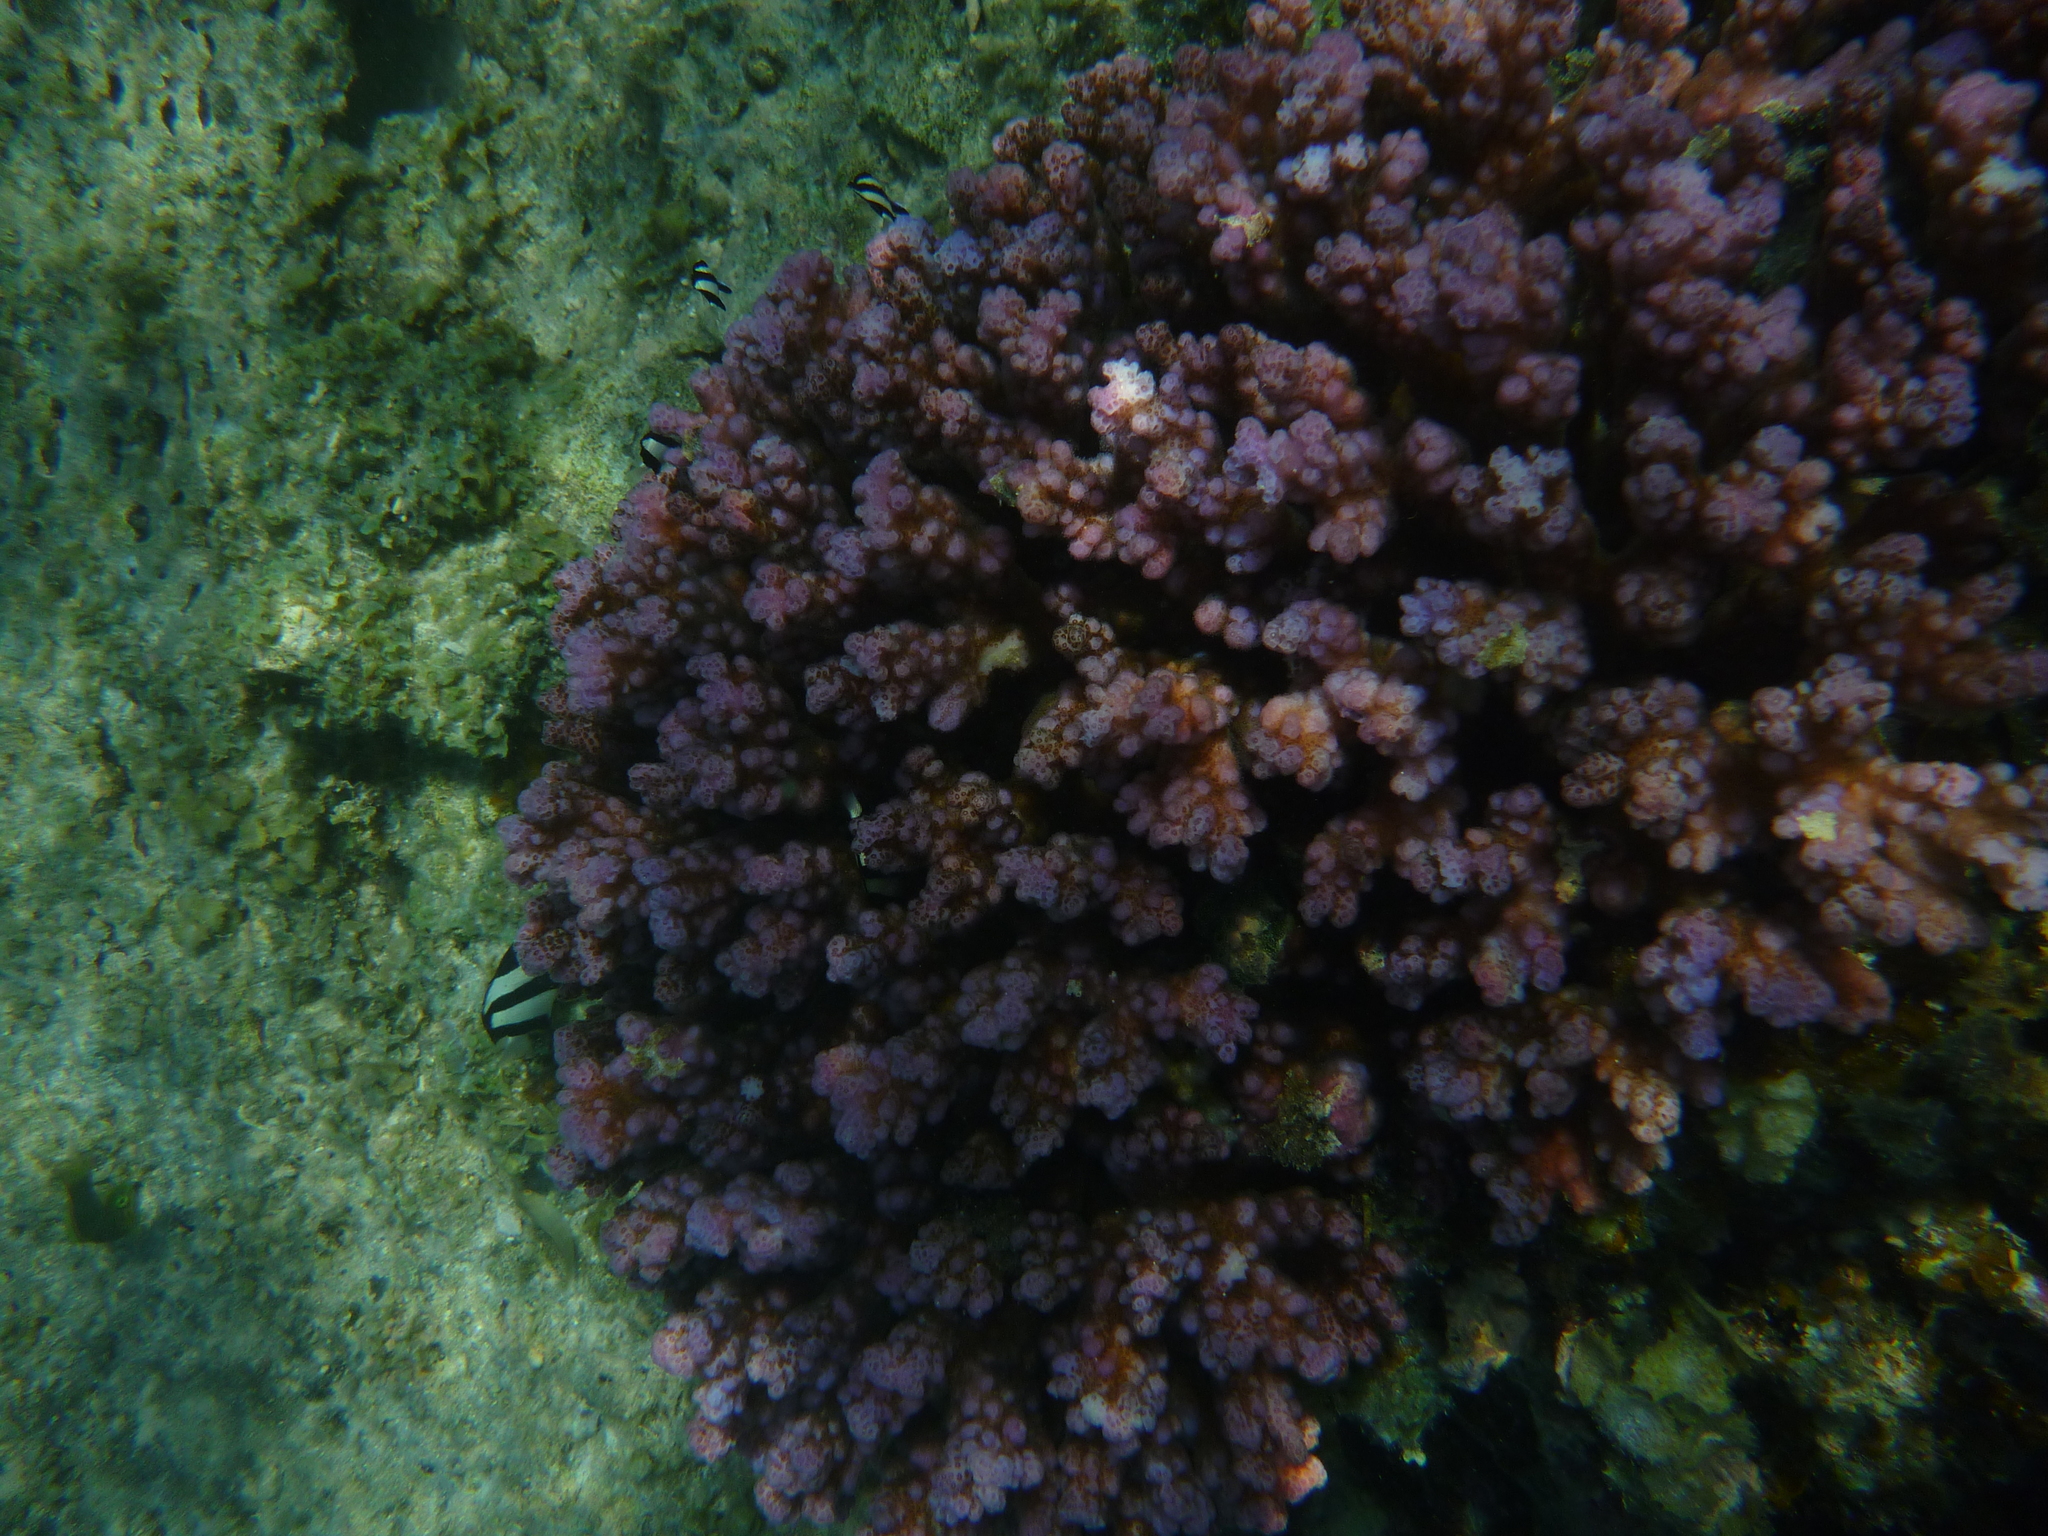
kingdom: Animalia
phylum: Cnidaria
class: Anthozoa
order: Scleractinia
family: Pocilloporidae
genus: Pocillopora
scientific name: Pocillopora damicornis
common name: Cauliflower coral
